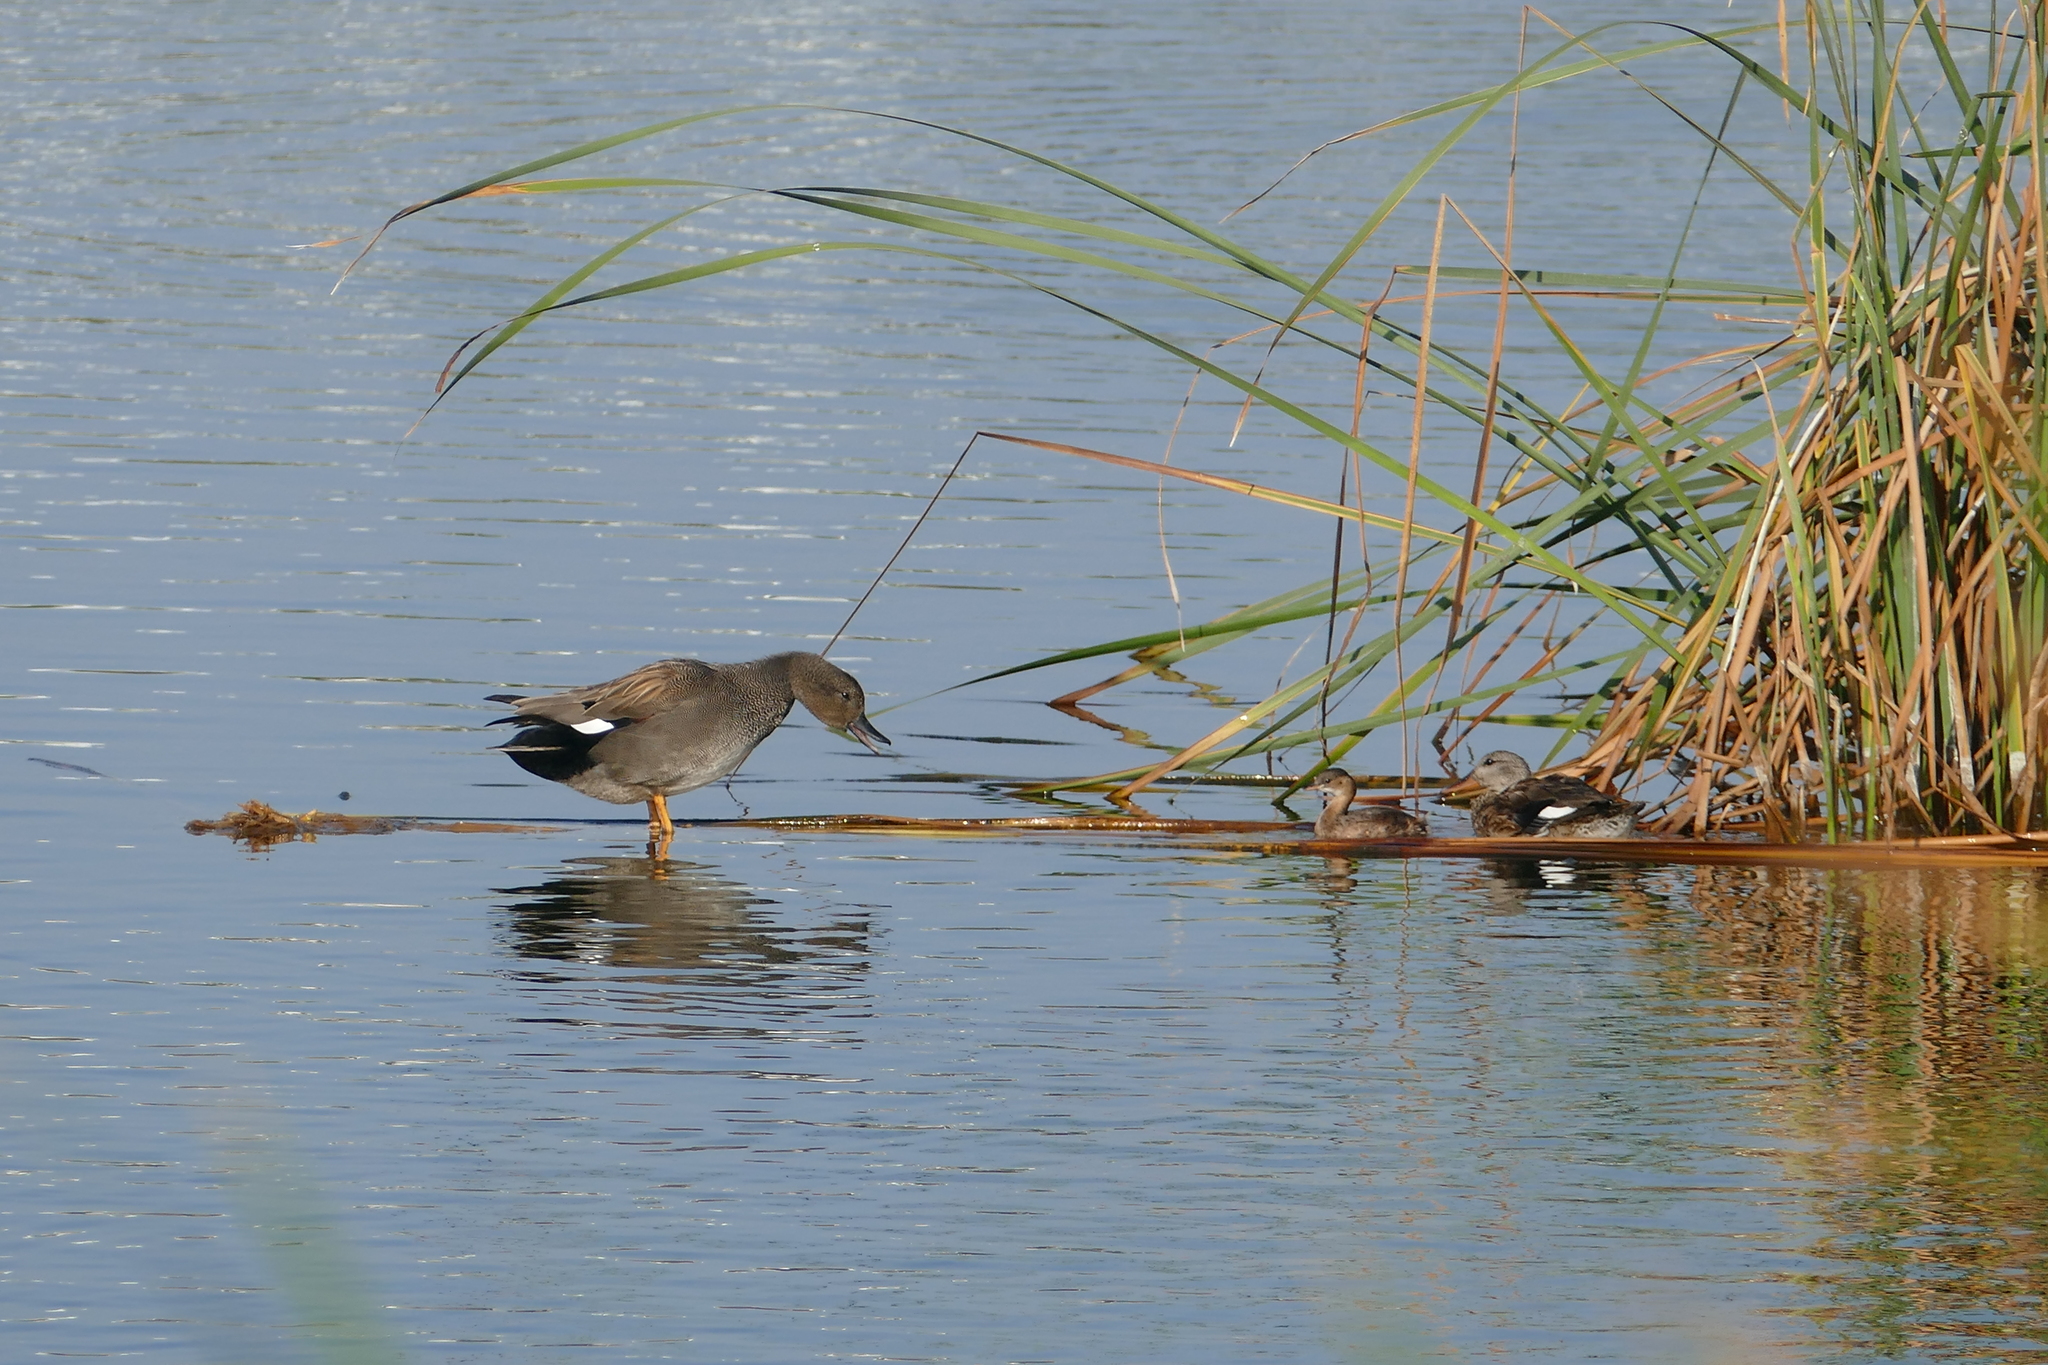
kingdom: Animalia
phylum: Chordata
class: Aves
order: Anseriformes
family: Anatidae
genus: Mareca
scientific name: Mareca strepera
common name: Gadwall
